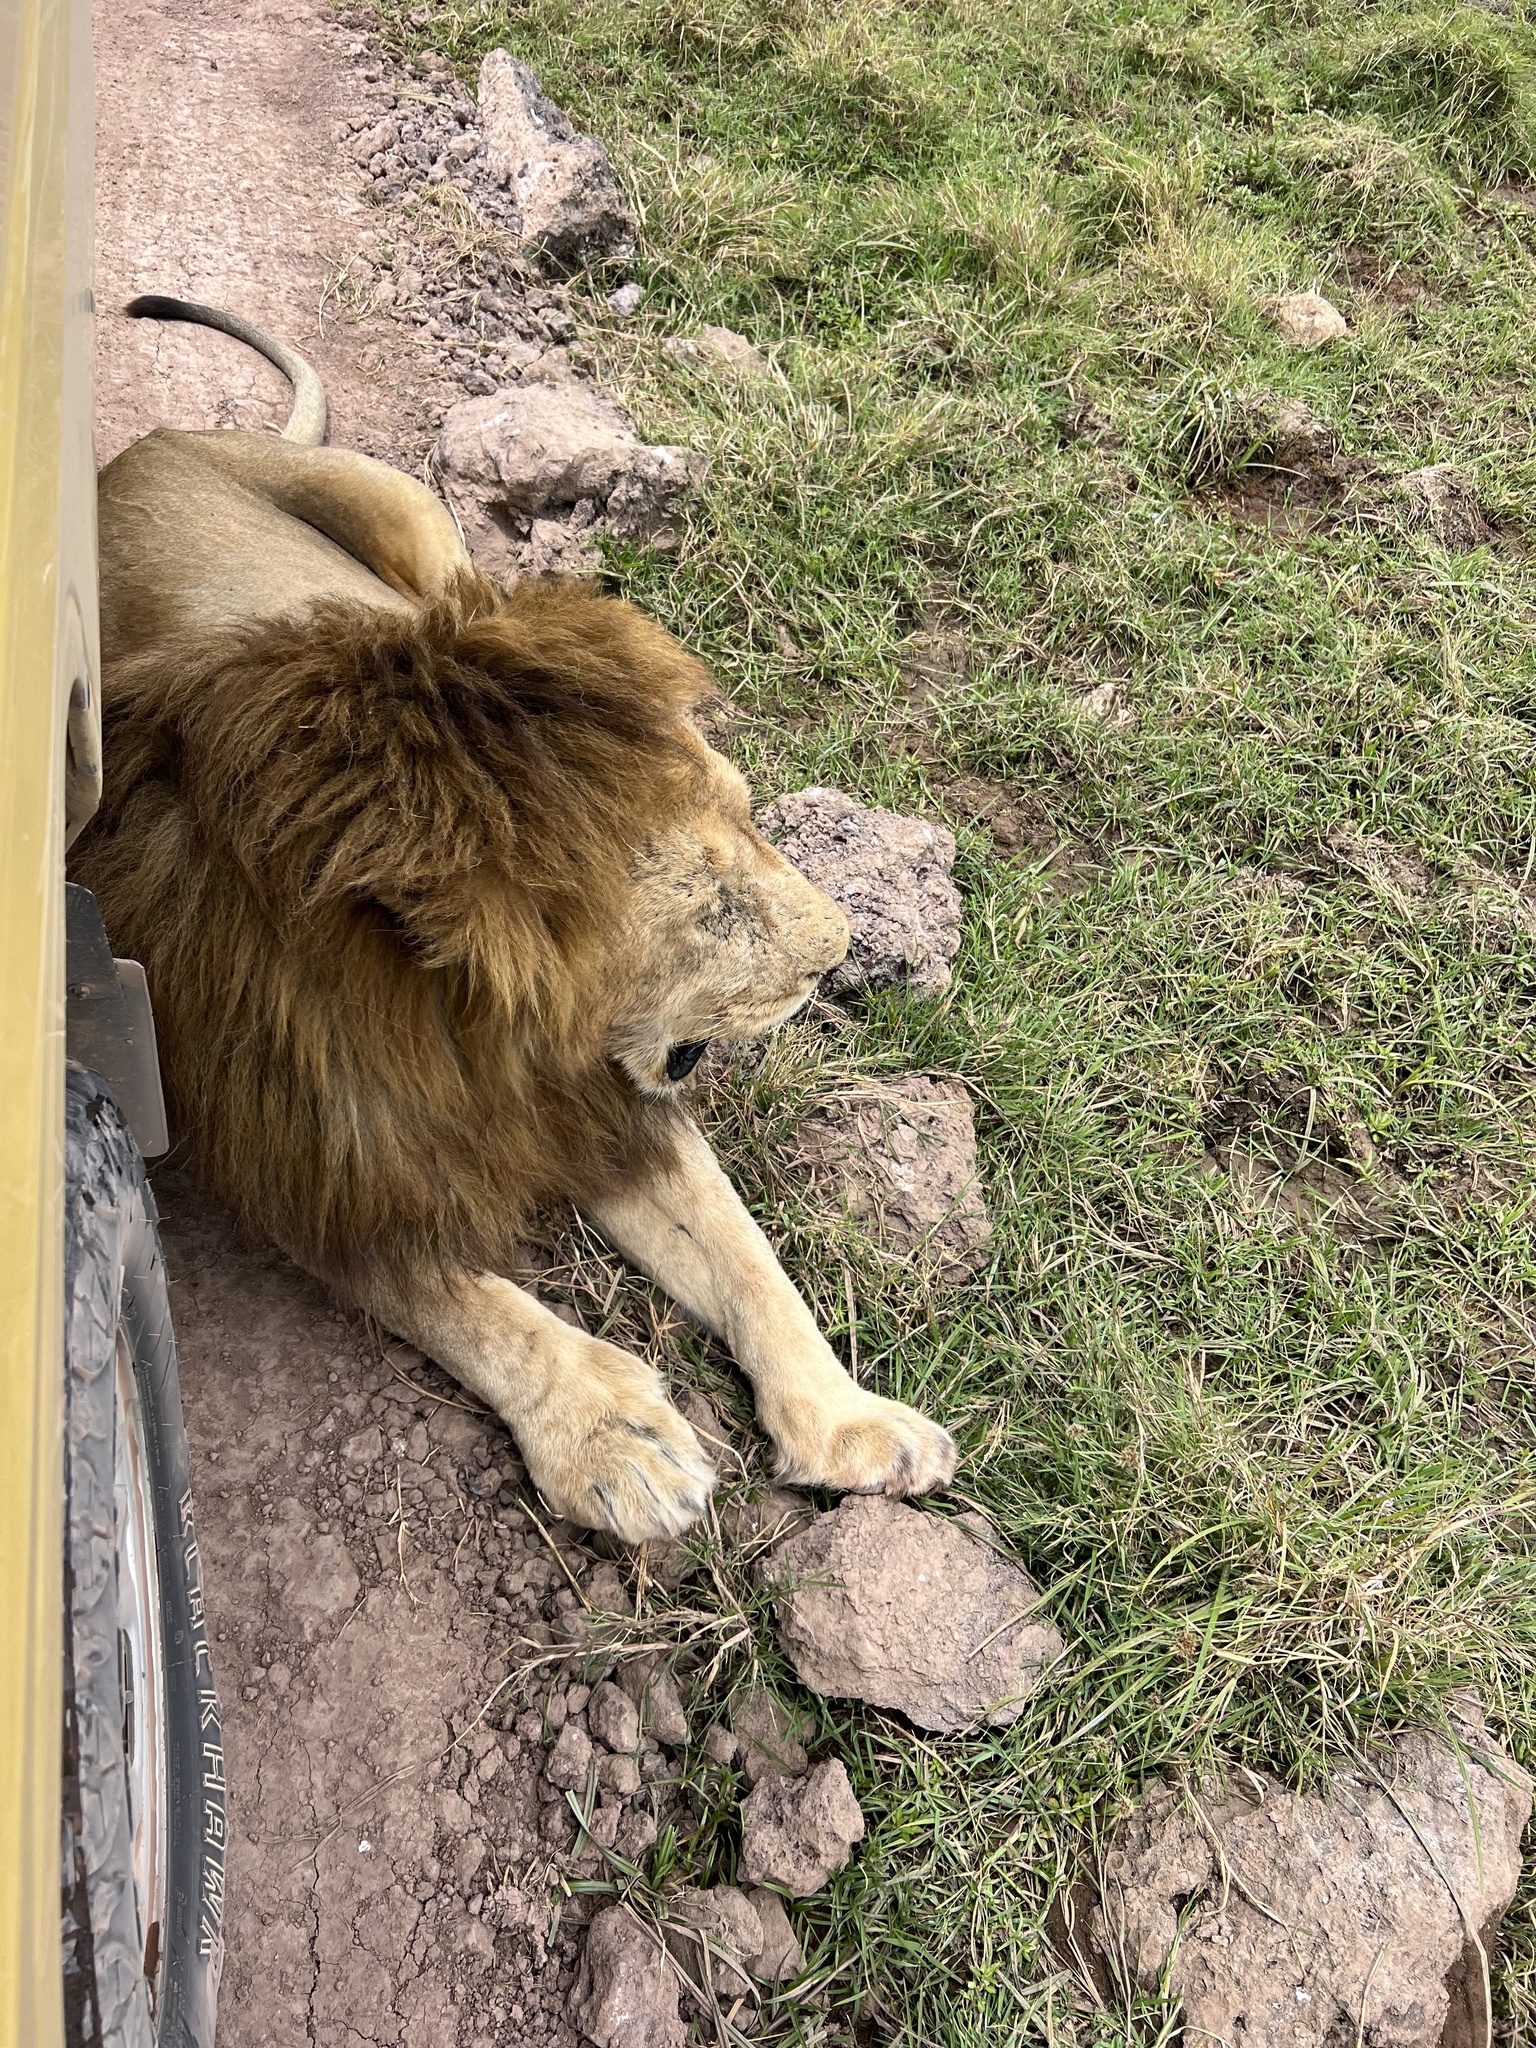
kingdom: Animalia
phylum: Chordata
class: Mammalia
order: Carnivora
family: Felidae
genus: Panthera
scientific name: Panthera leo
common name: Lion
